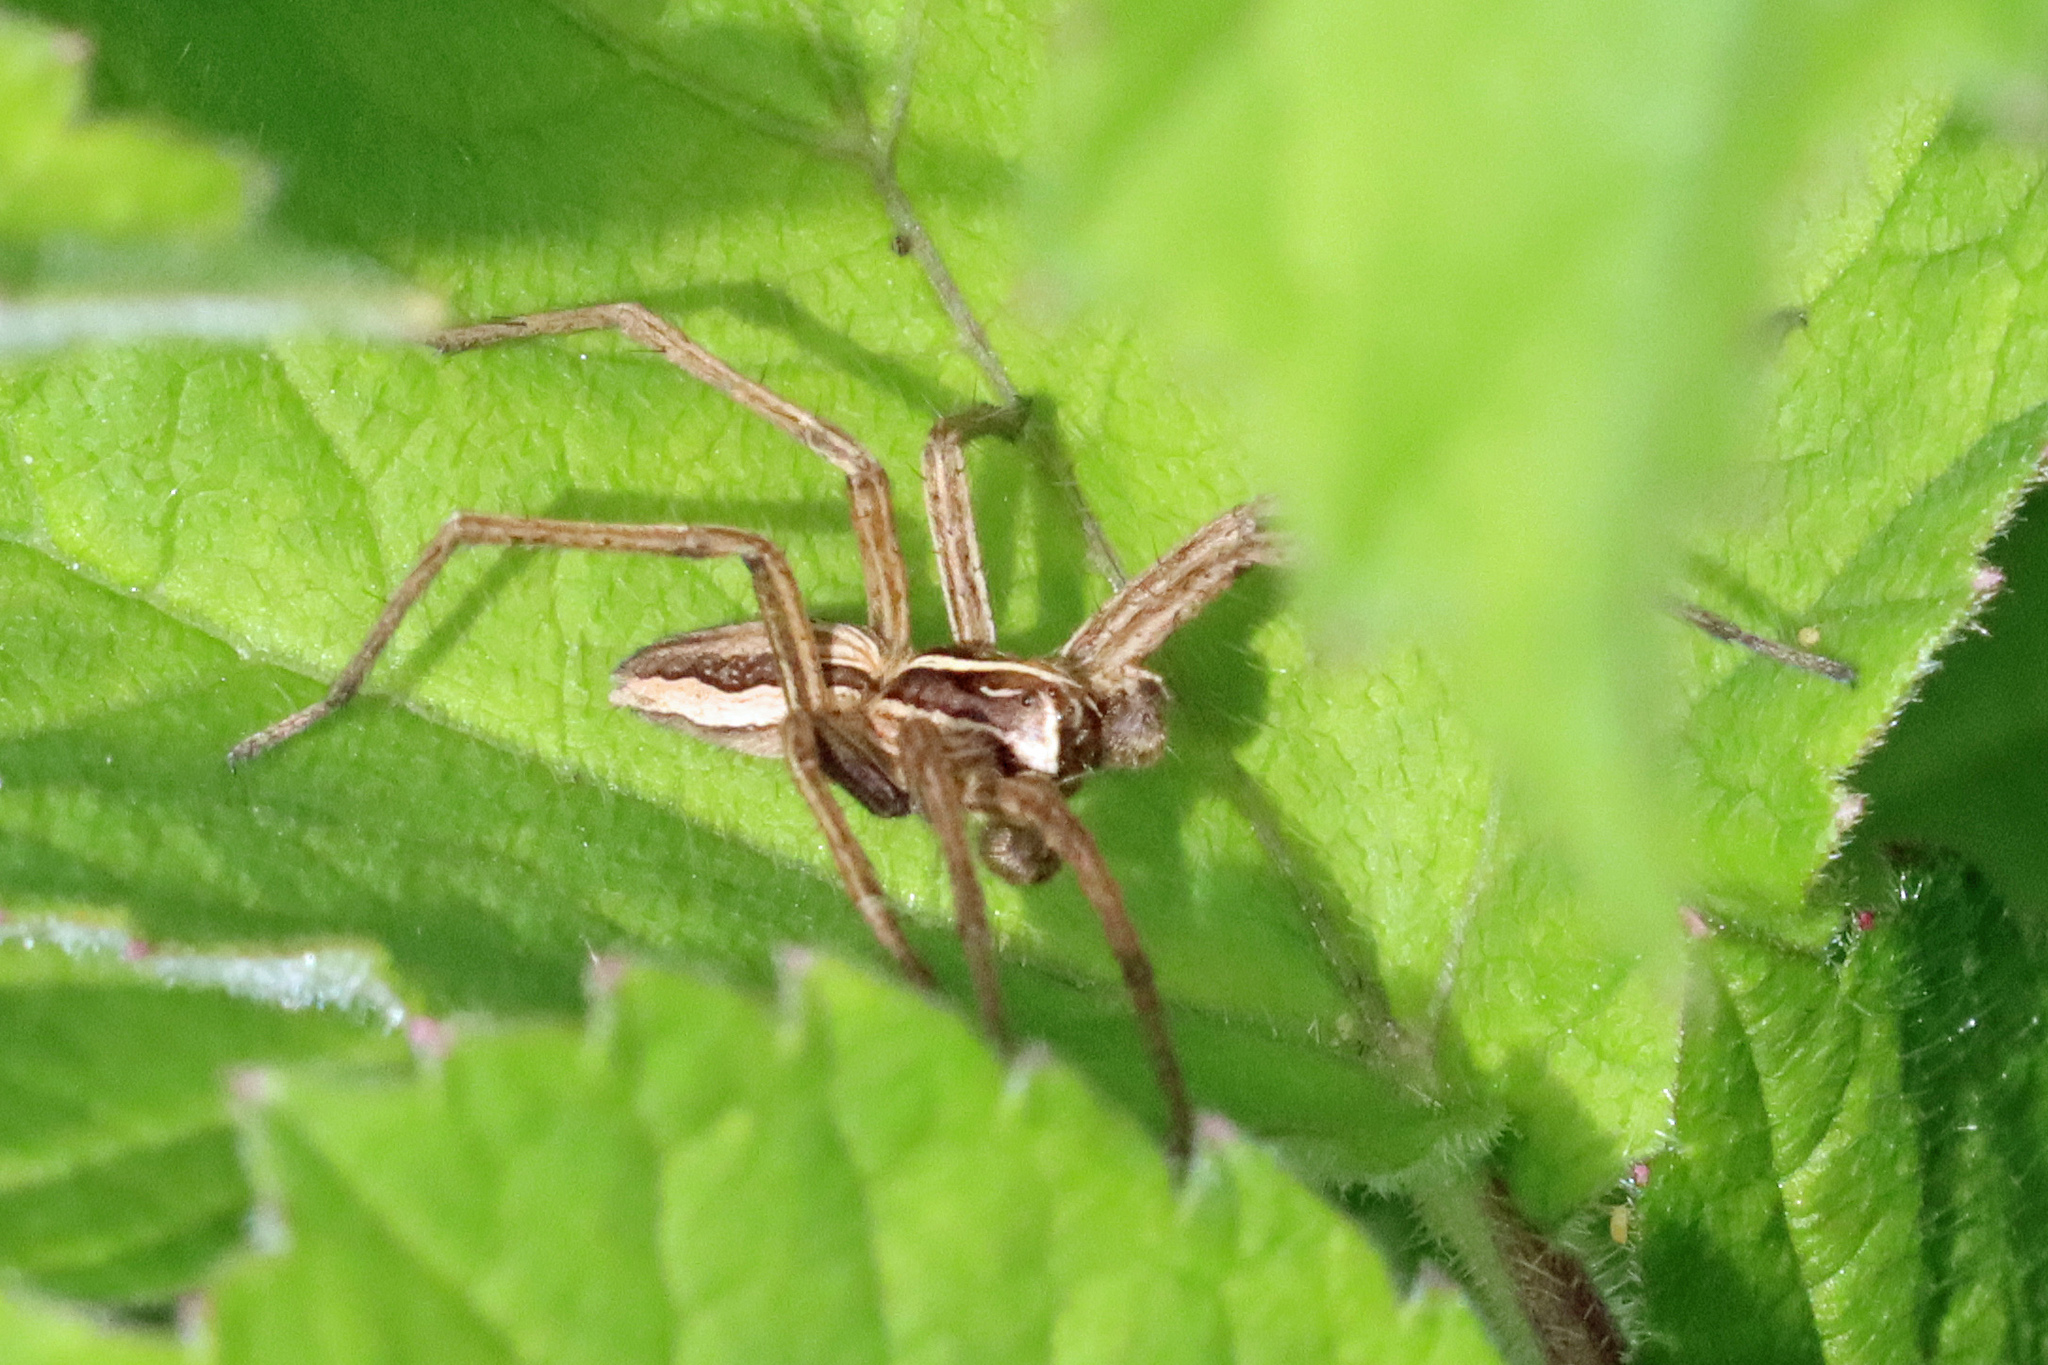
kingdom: Animalia
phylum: Arthropoda
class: Arachnida
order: Araneae
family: Pisauridae
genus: Pisaura
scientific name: Pisaura mirabilis
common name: Tent spider
